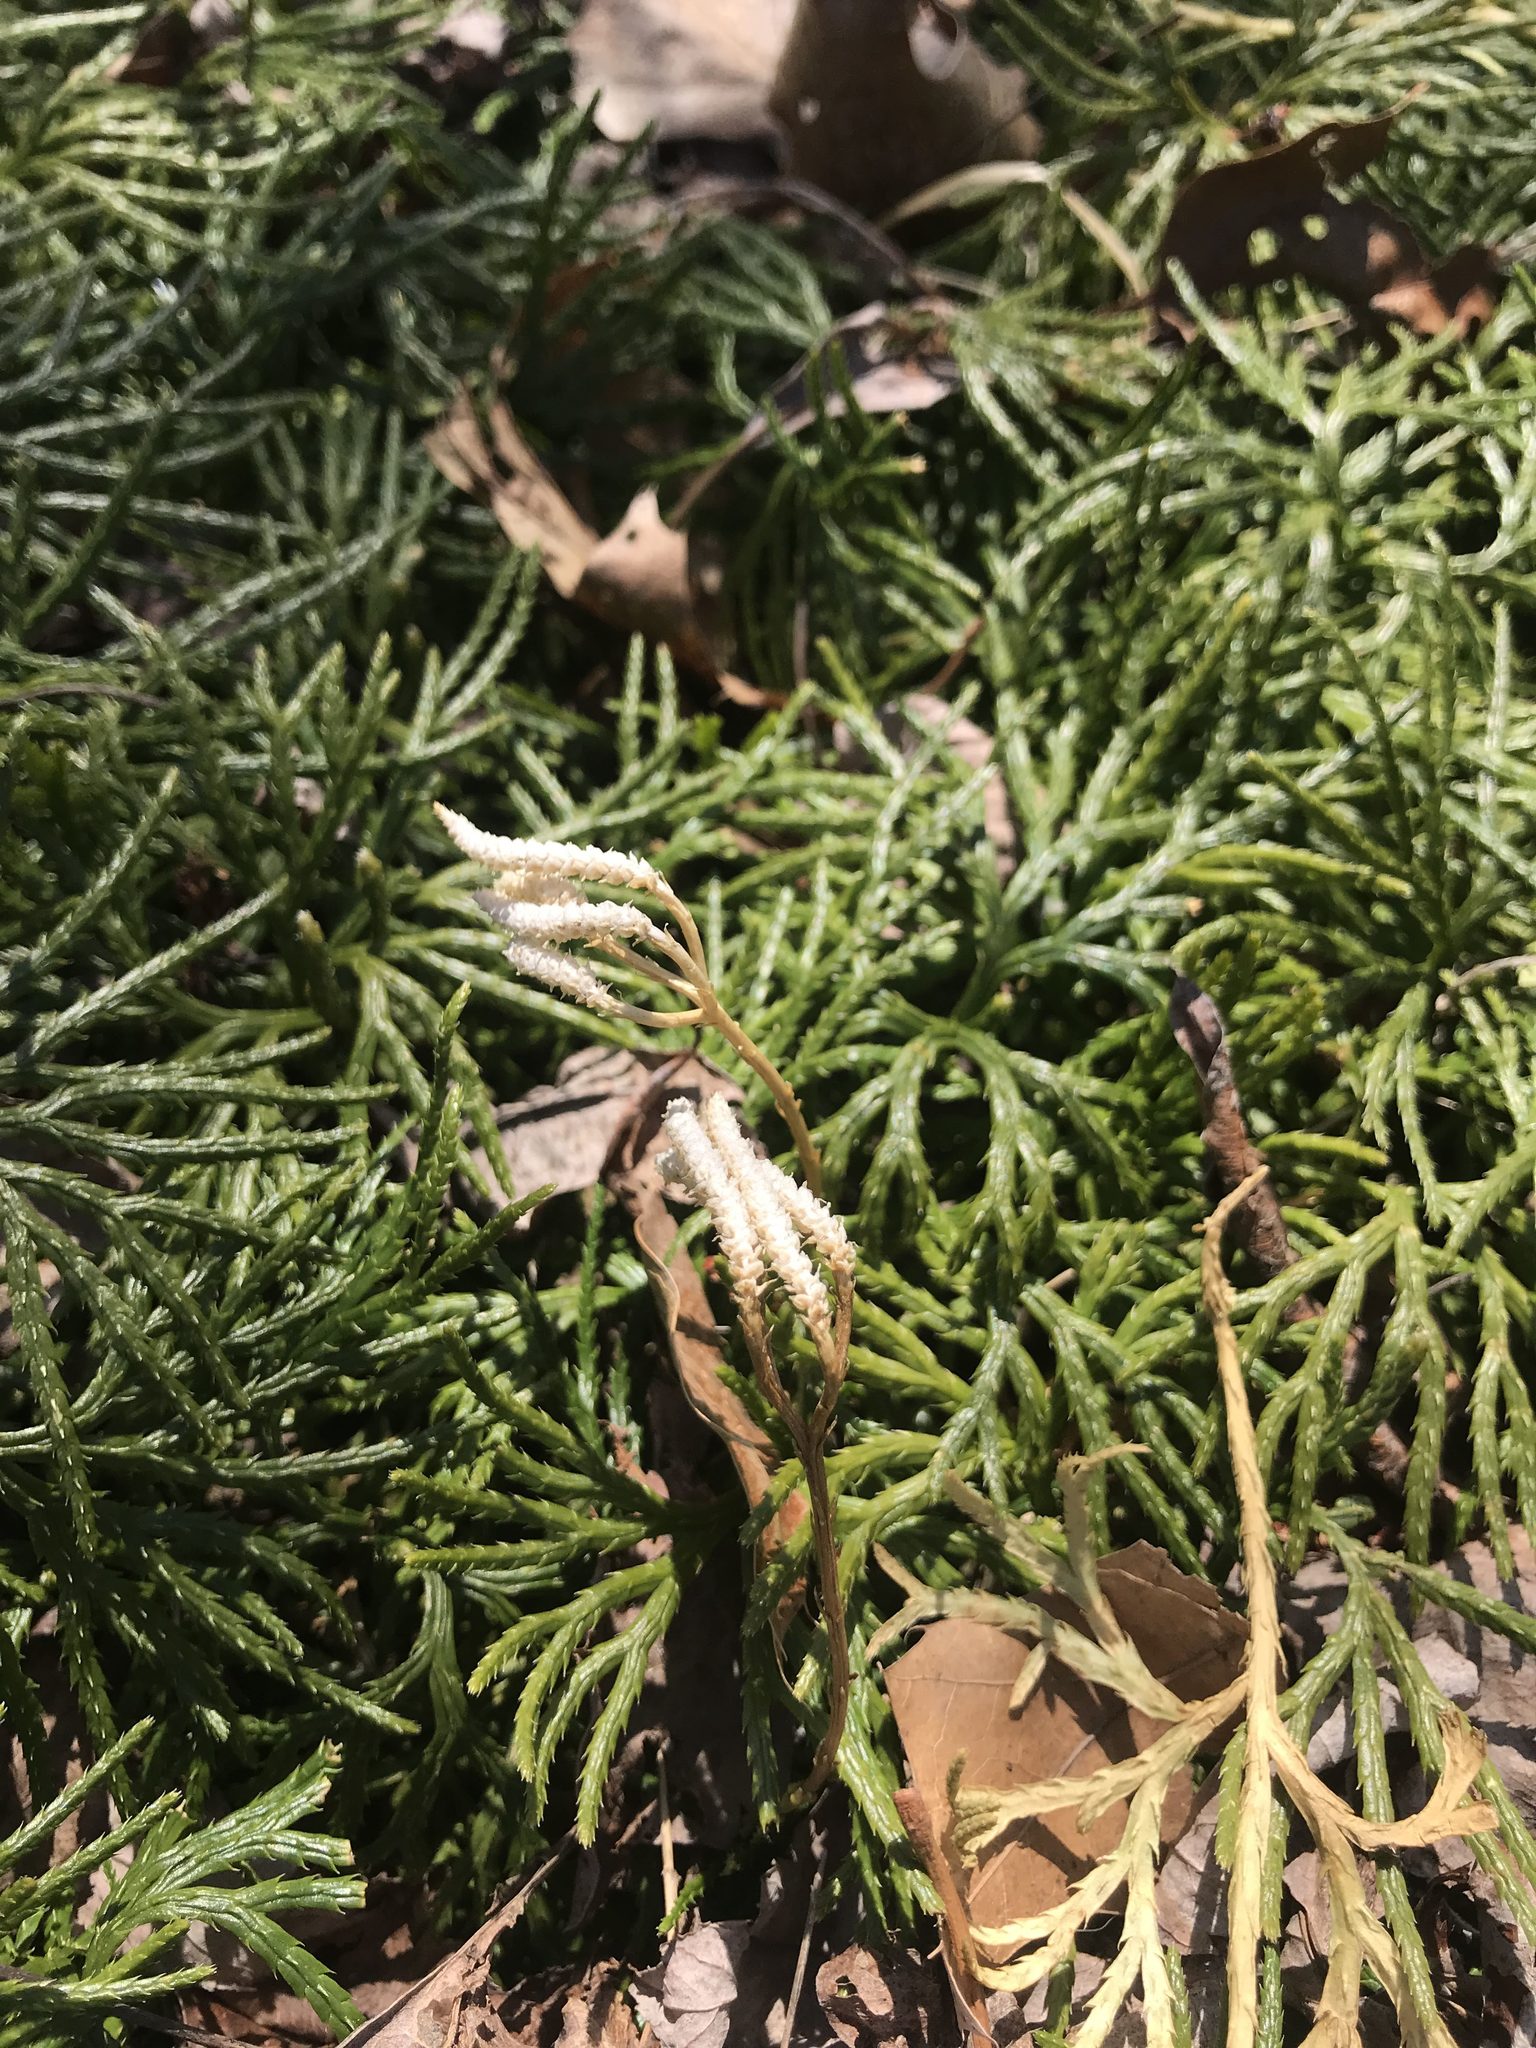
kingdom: Plantae
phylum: Tracheophyta
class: Lycopodiopsida
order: Lycopodiales
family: Lycopodiaceae
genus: Diphasiastrum
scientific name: Diphasiastrum digitatum
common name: Southern running-pine
